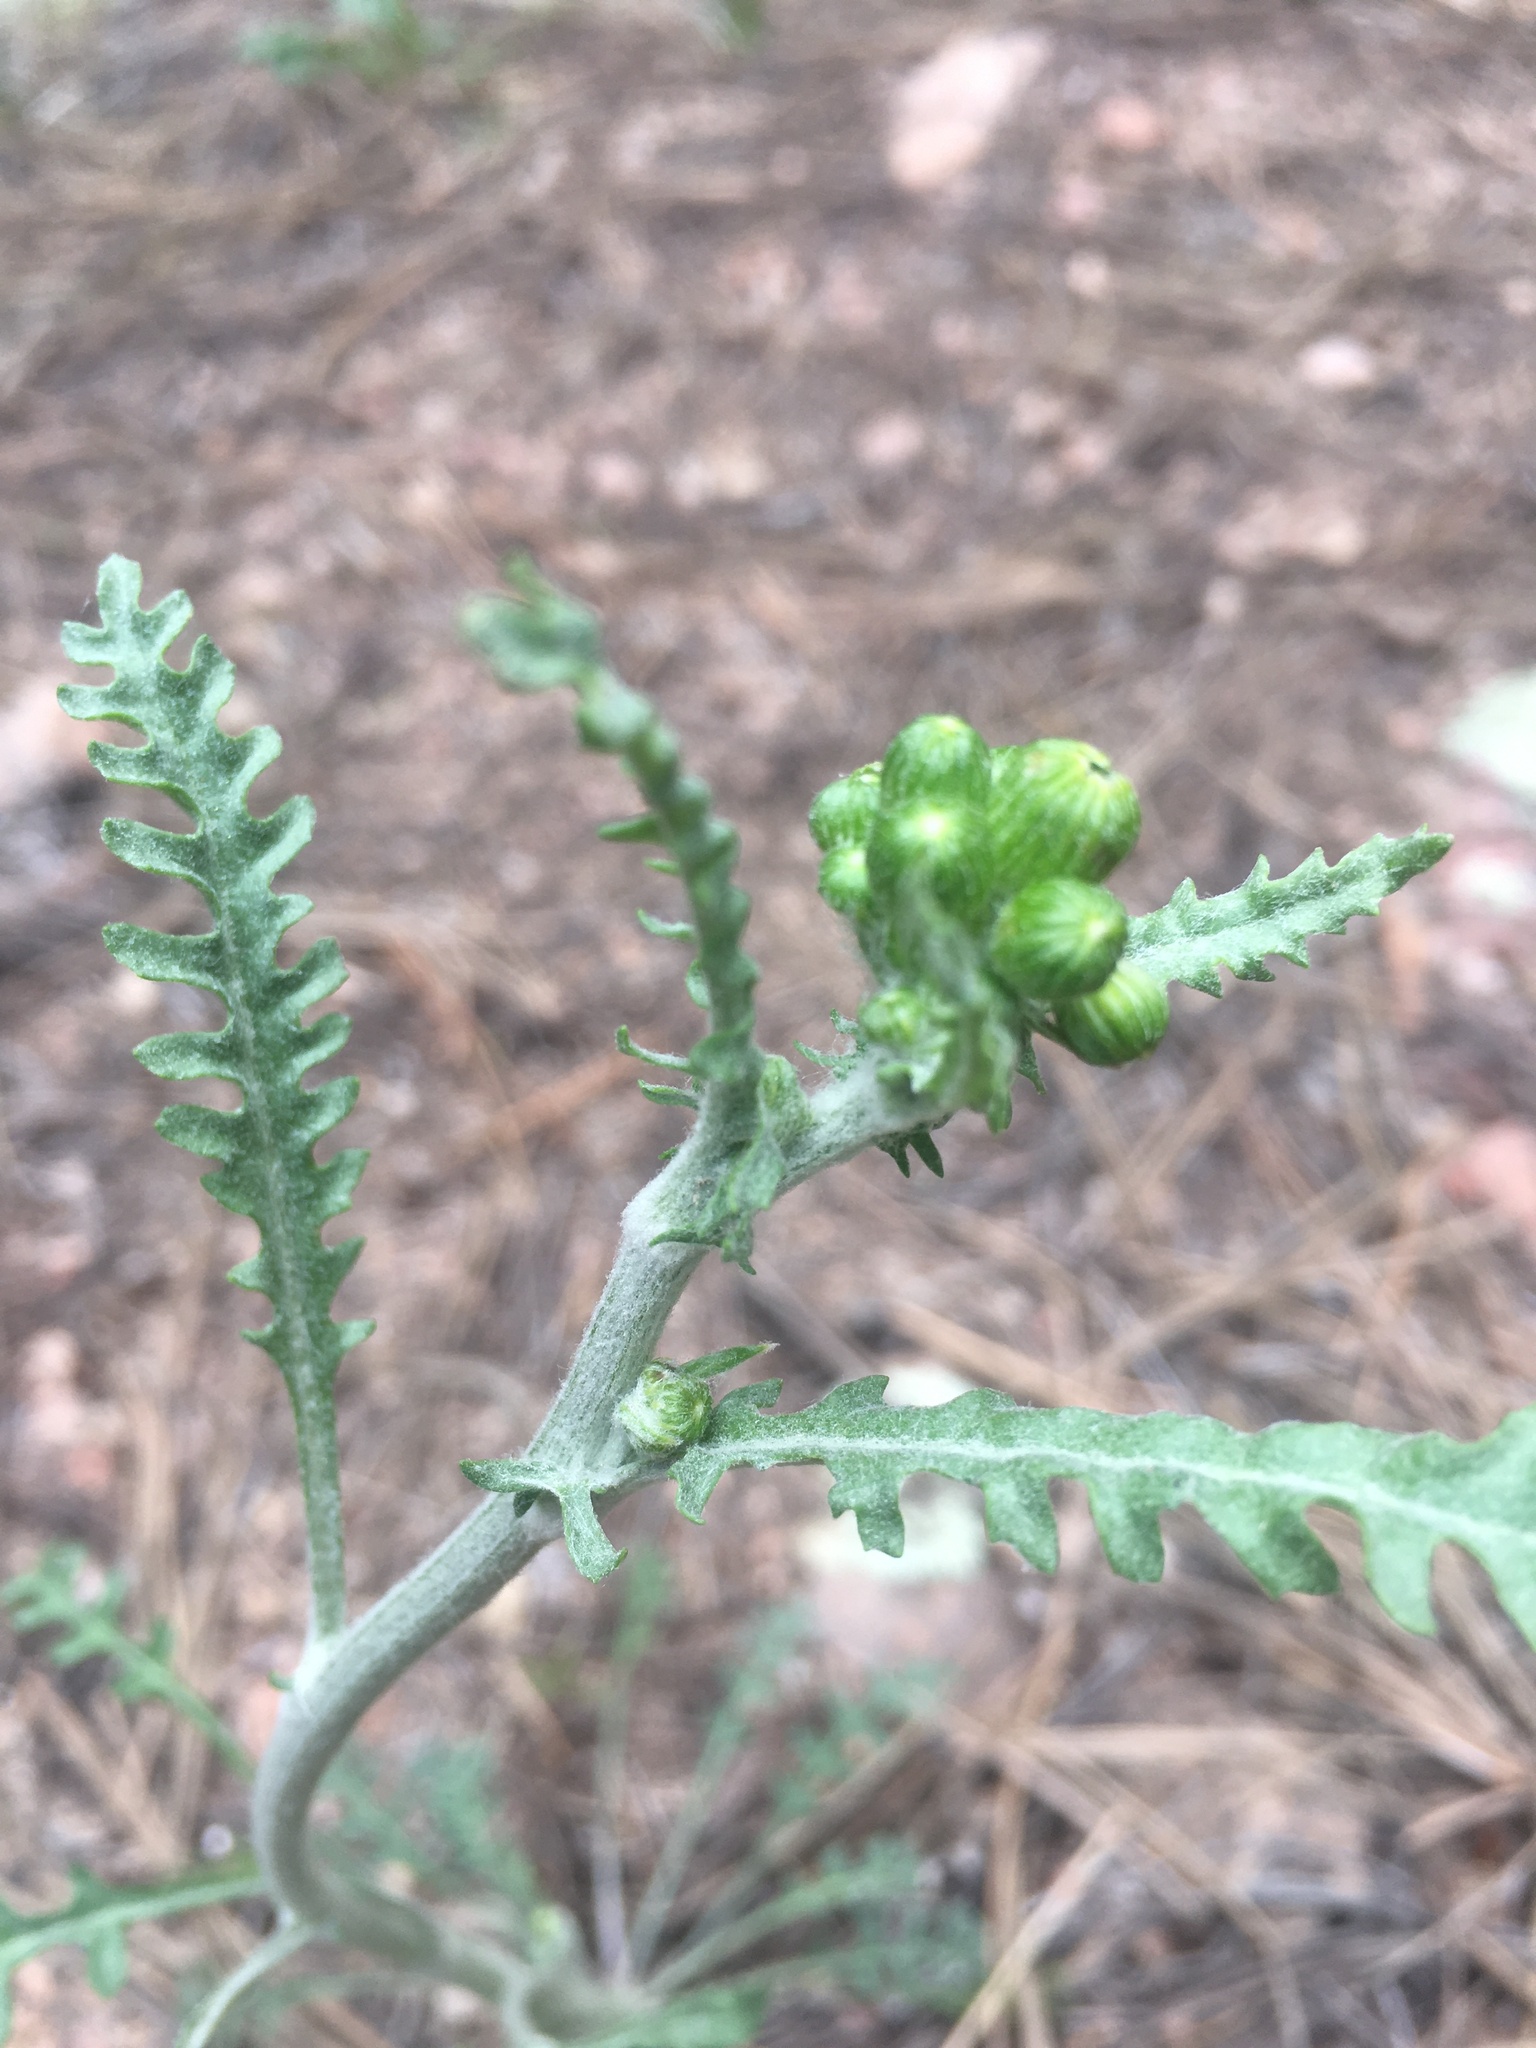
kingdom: Plantae
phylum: Tracheophyta
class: Magnoliopsida
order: Asterales
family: Asteraceae
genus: Packera
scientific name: Packera fendleri
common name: Notch-leaf butterweed
